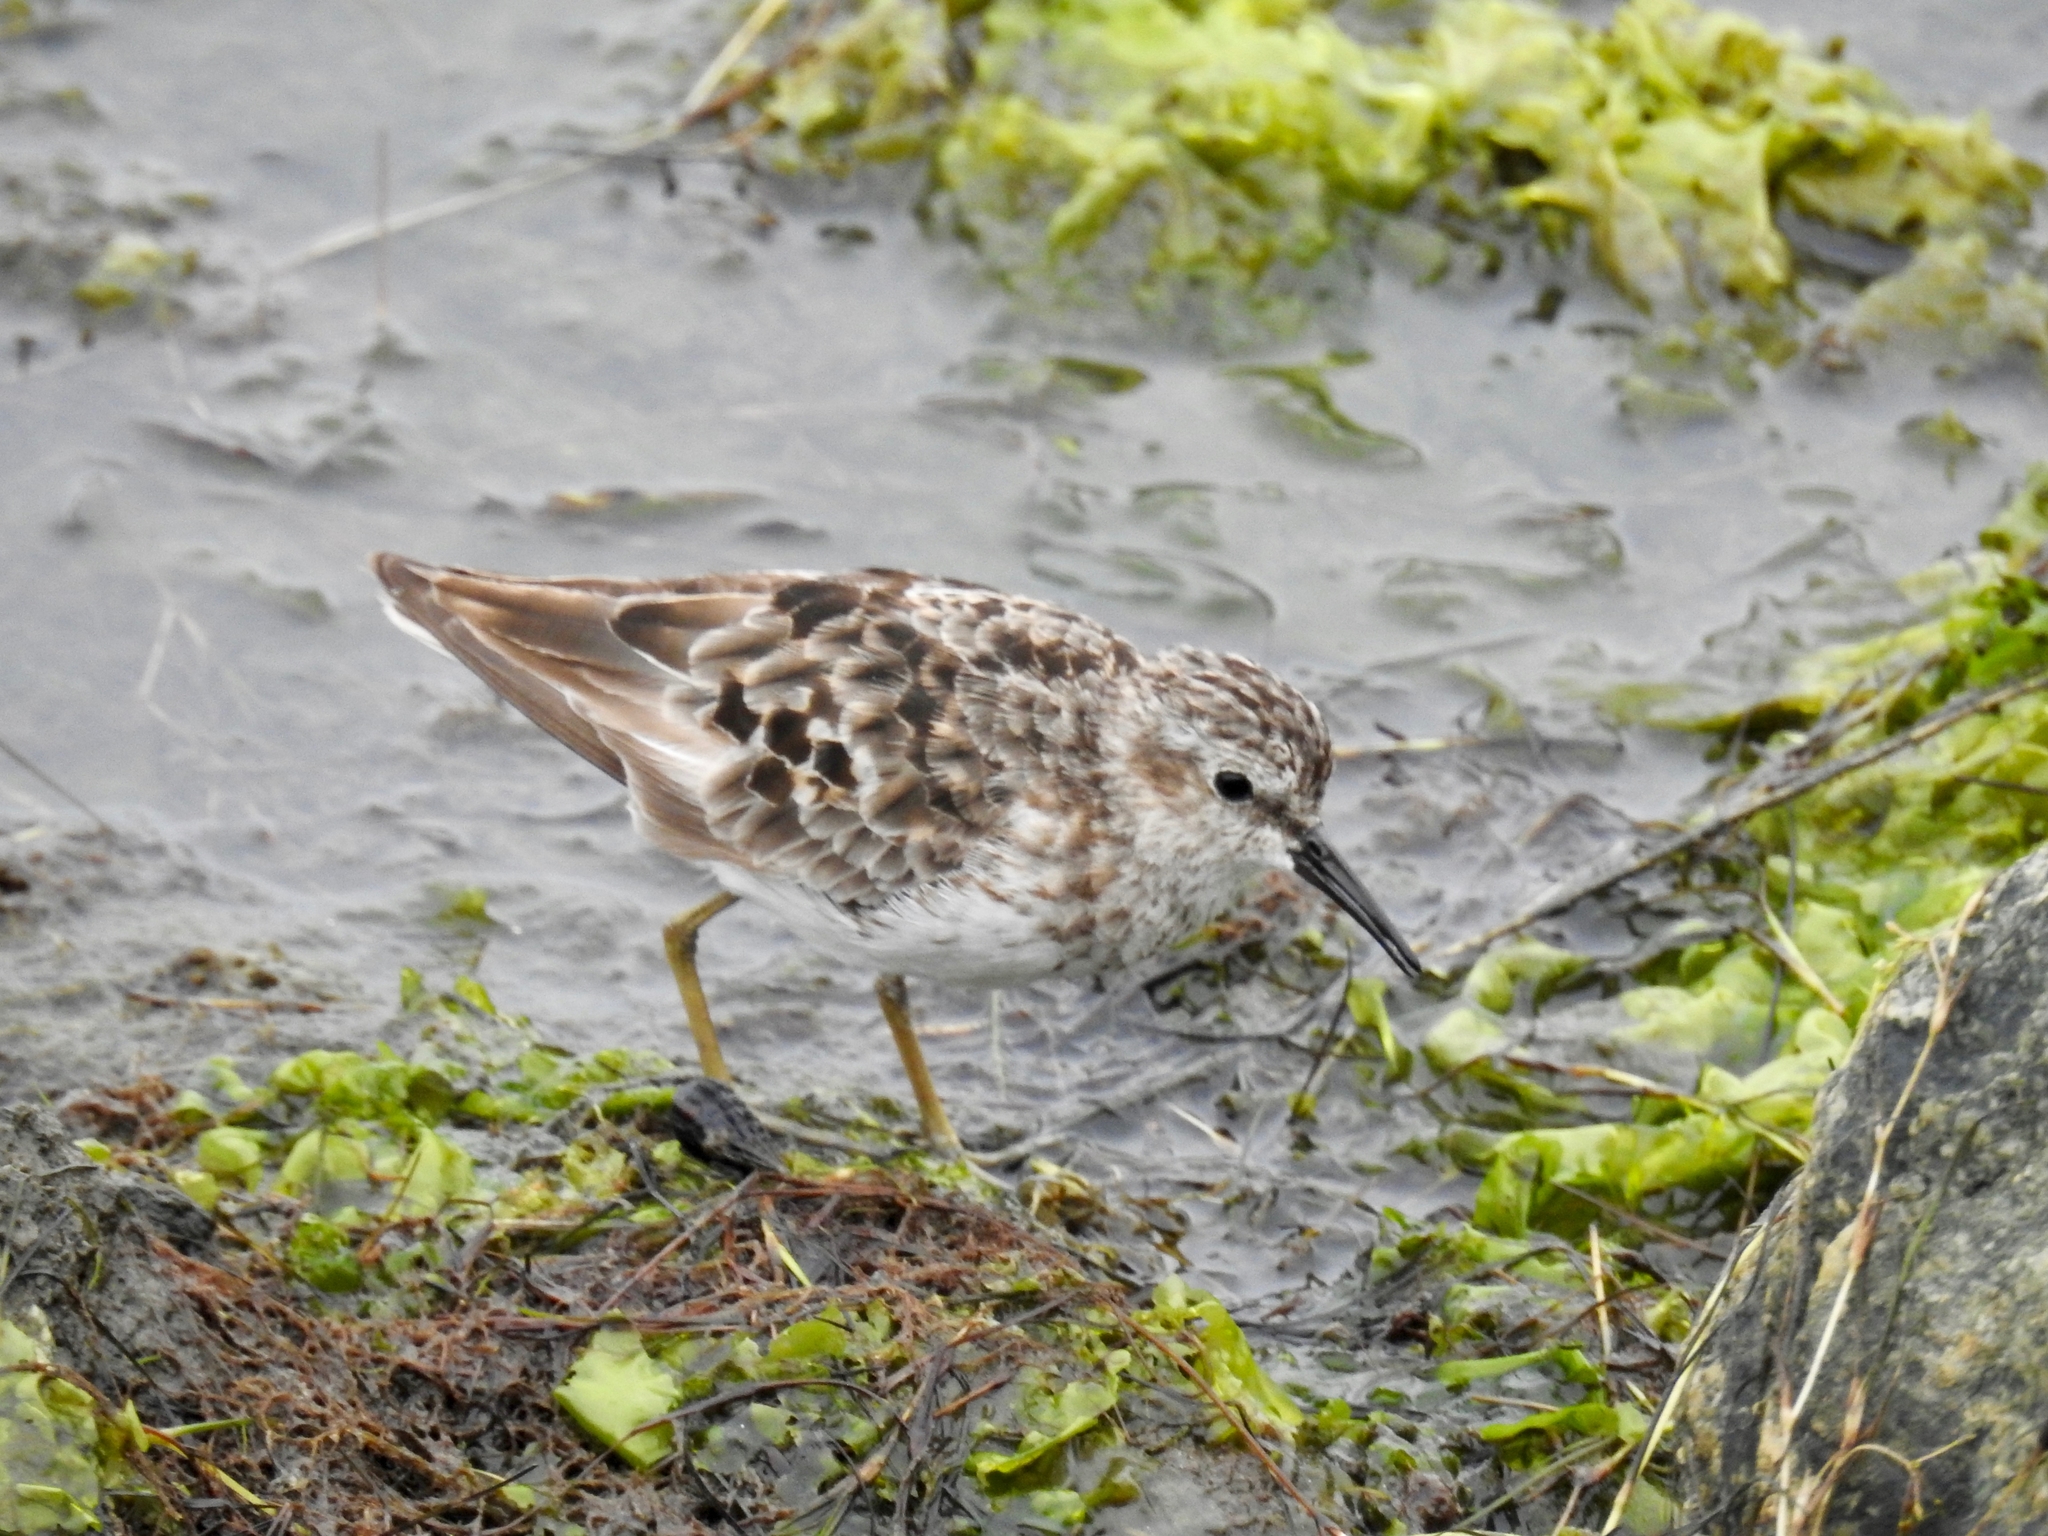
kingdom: Animalia
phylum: Chordata
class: Aves
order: Charadriiformes
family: Scolopacidae
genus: Calidris
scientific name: Calidris minutilla
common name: Least sandpiper
